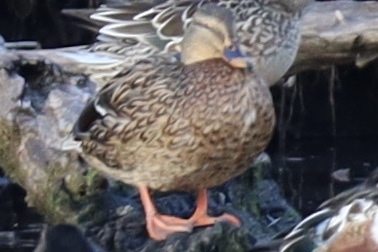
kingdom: Animalia
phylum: Chordata
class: Aves
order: Anseriformes
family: Anatidae
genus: Anas
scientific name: Anas platyrhynchos
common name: Mallard
